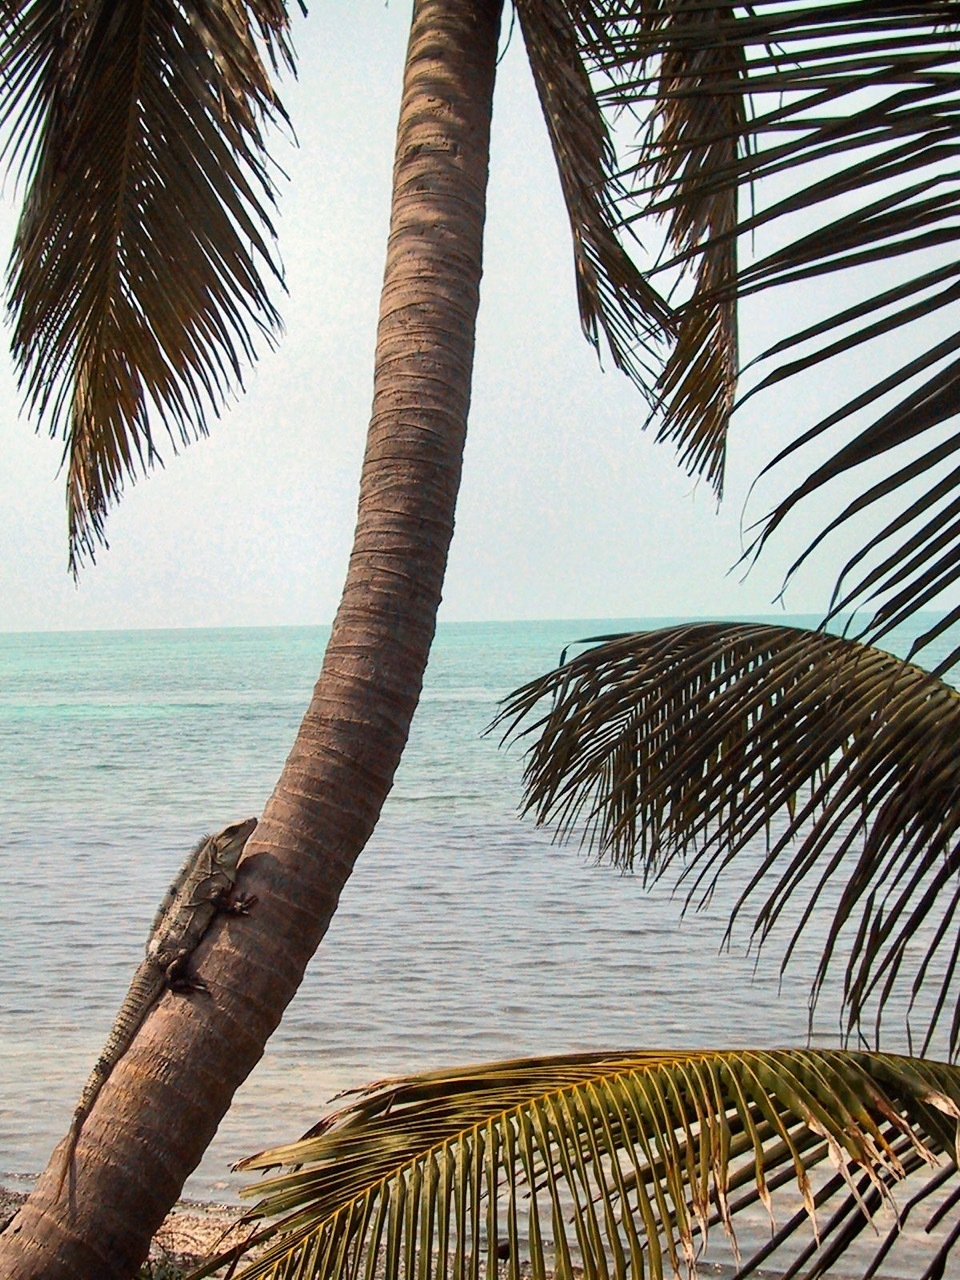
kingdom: Animalia
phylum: Chordata
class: Squamata
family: Iguanidae
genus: Ctenosaura
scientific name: Ctenosaura similis
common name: Black spiny-tailed iguana
